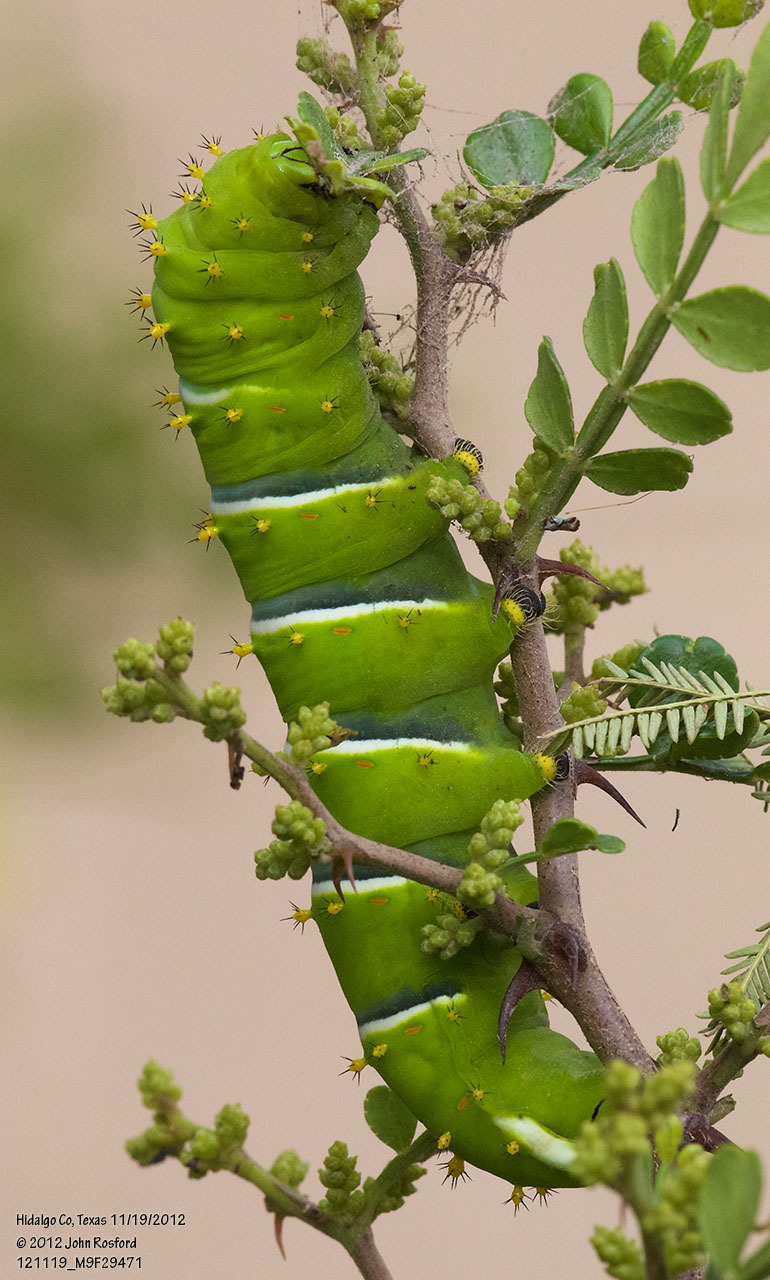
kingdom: Animalia
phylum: Arthropoda
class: Insecta
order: Lepidoptera
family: Saturniidae
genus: Rothschildia
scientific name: Rothschildia lebeau
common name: Lebeau's rothschildia
